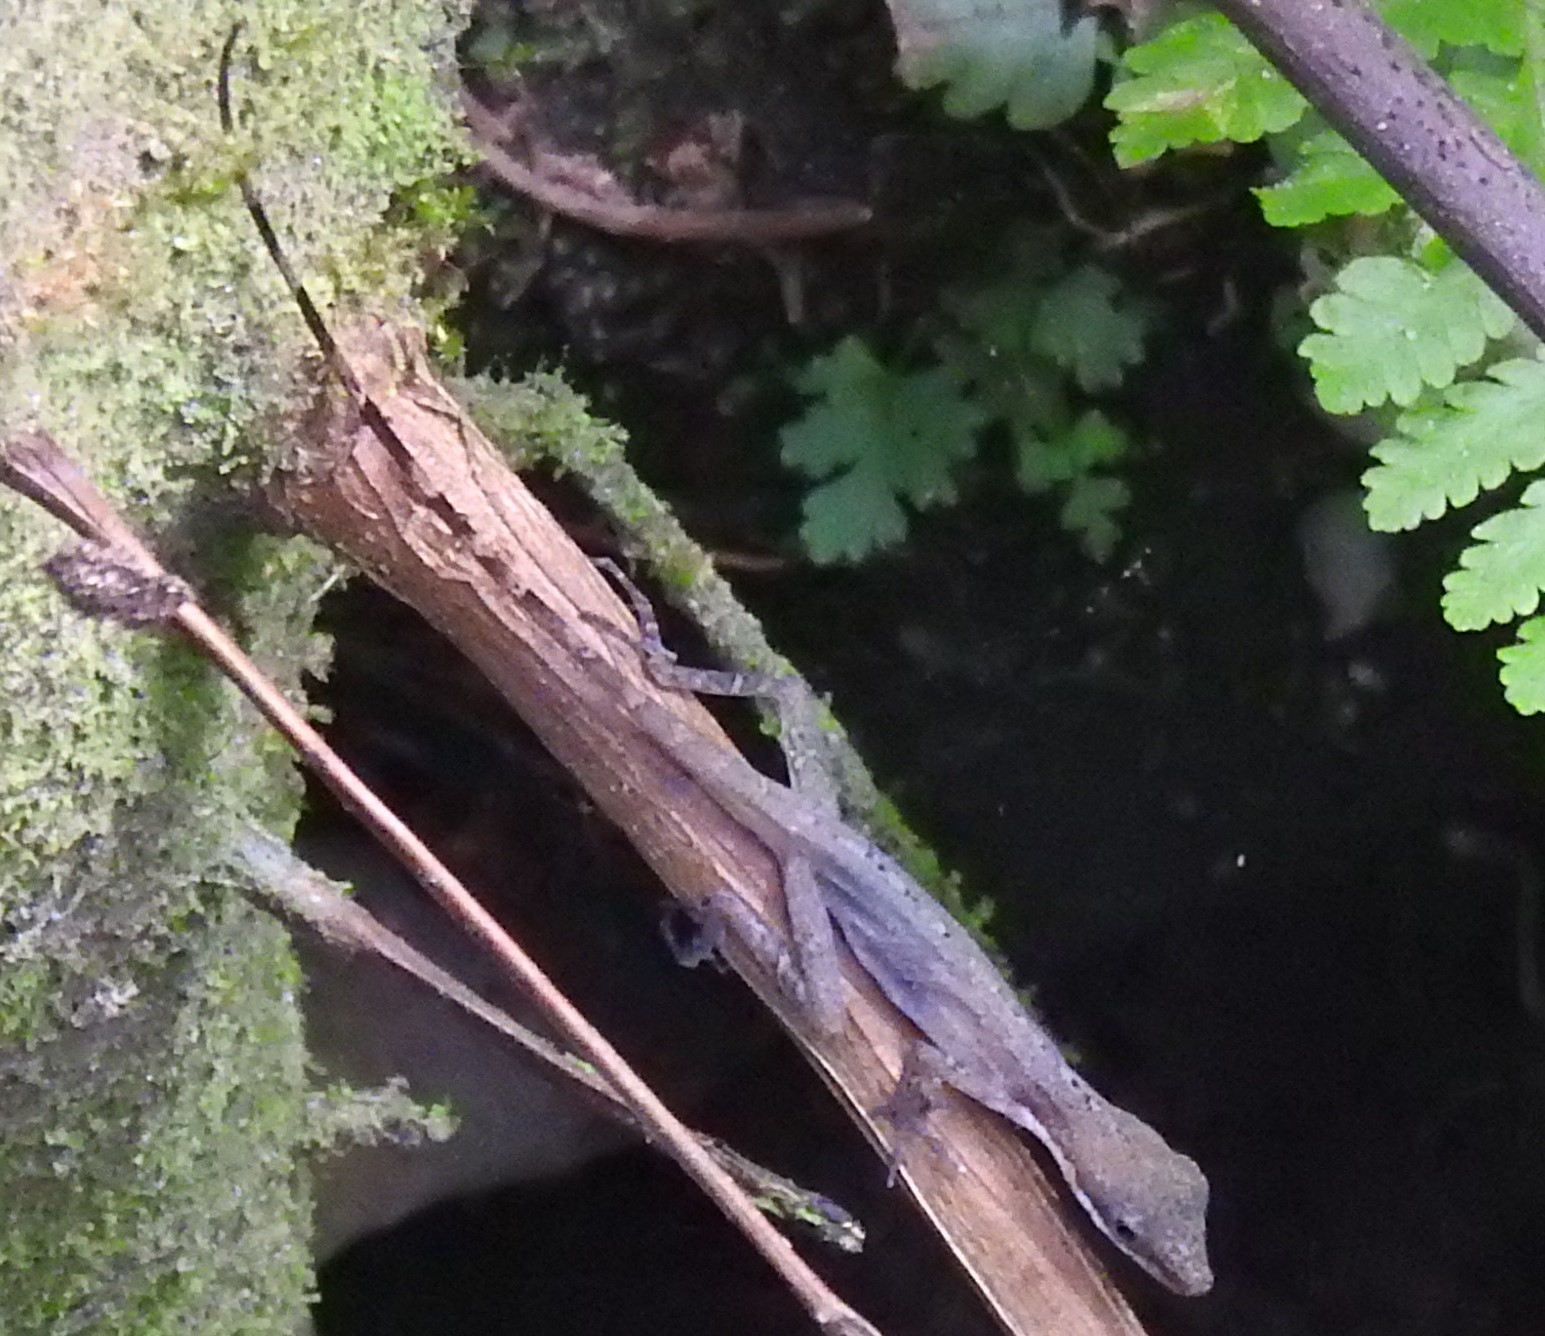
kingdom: Animalia
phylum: Chordata
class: Squamata
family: Dactyloidae
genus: Anolis
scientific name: Anolis limifrons
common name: Border anole
